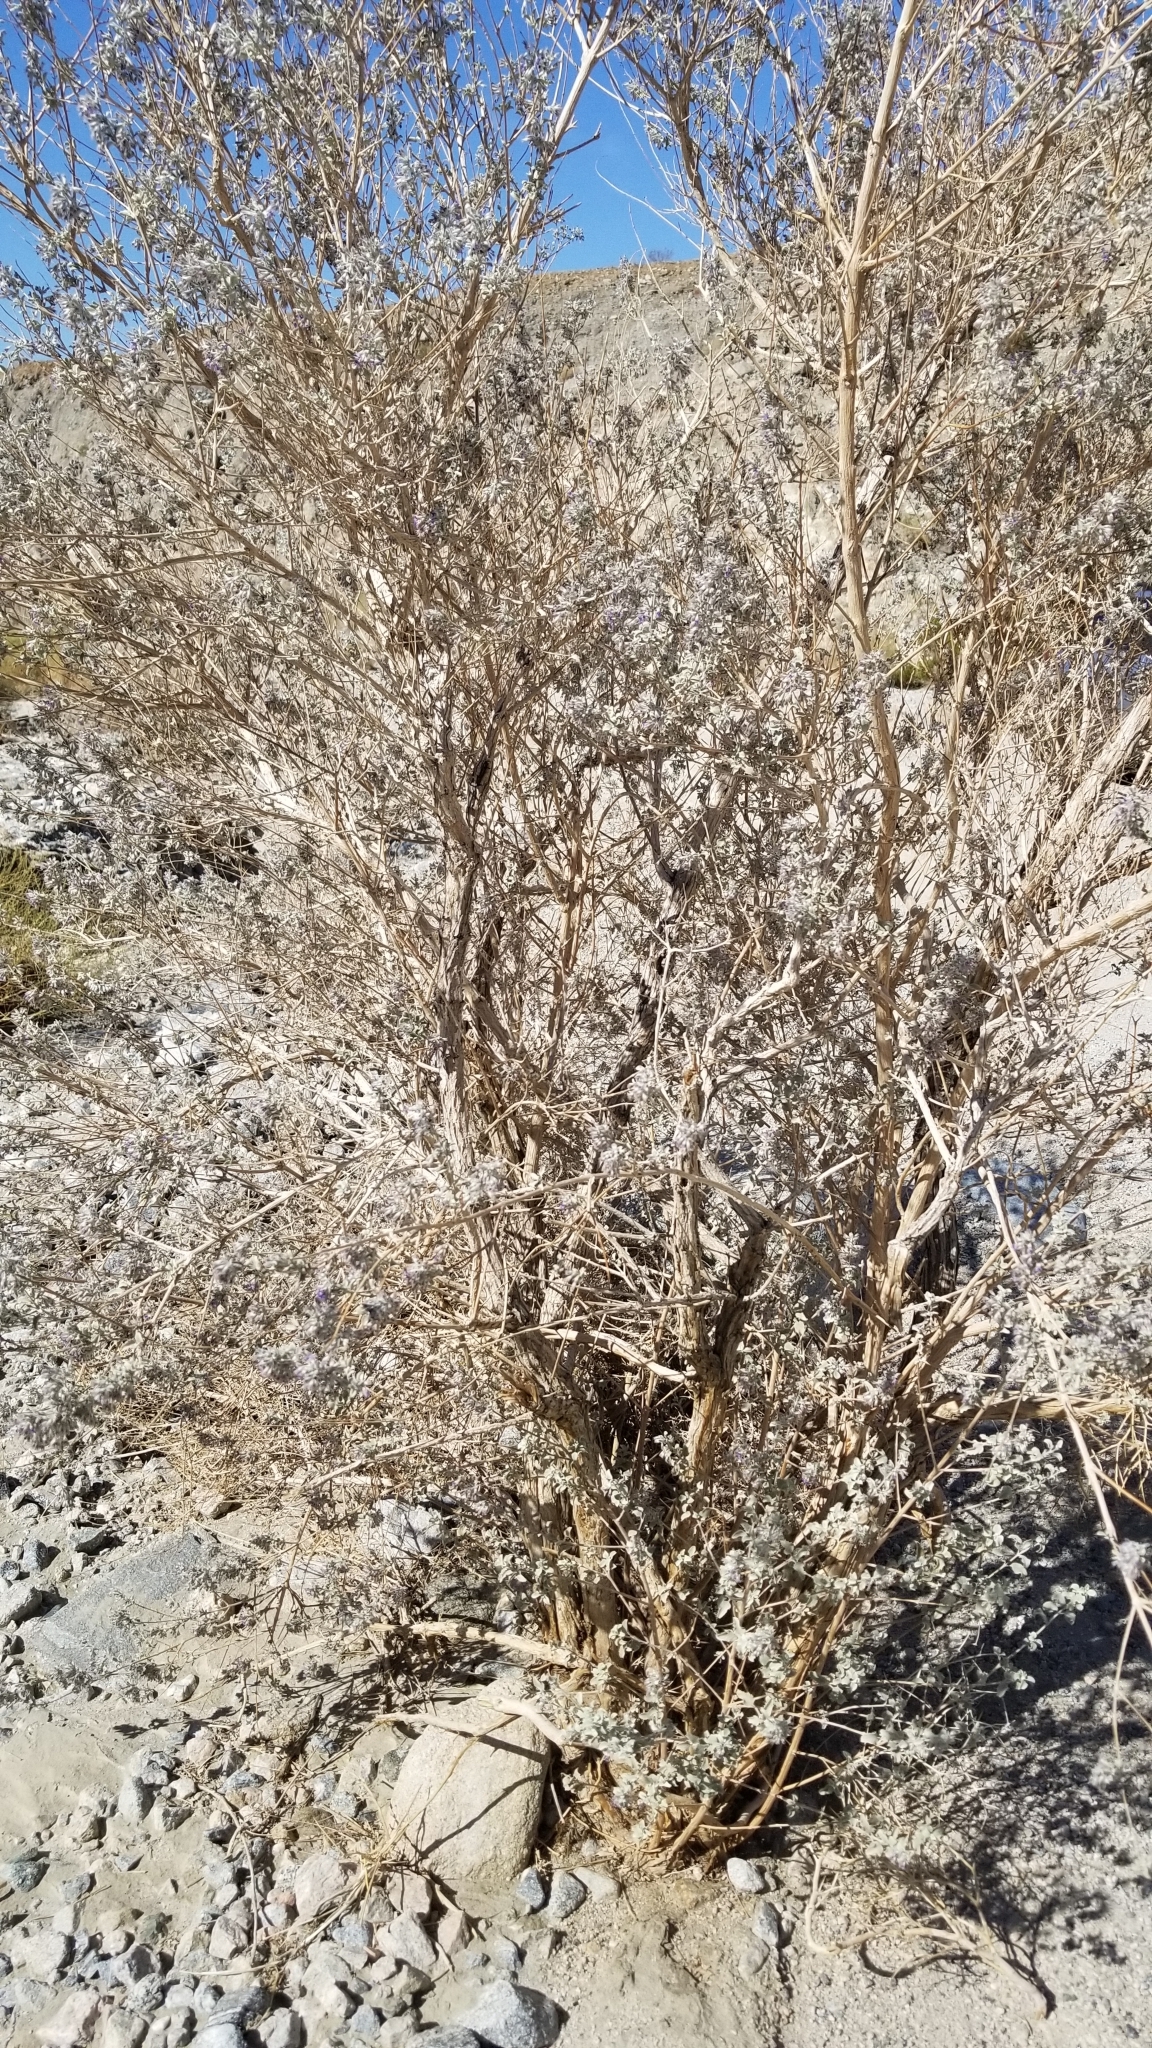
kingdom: Plantae
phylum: Tracheophyta
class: Magnoliopsida
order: Lamiales
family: Lamiaceae
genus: Condea
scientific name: Condea emoryi
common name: Chia
